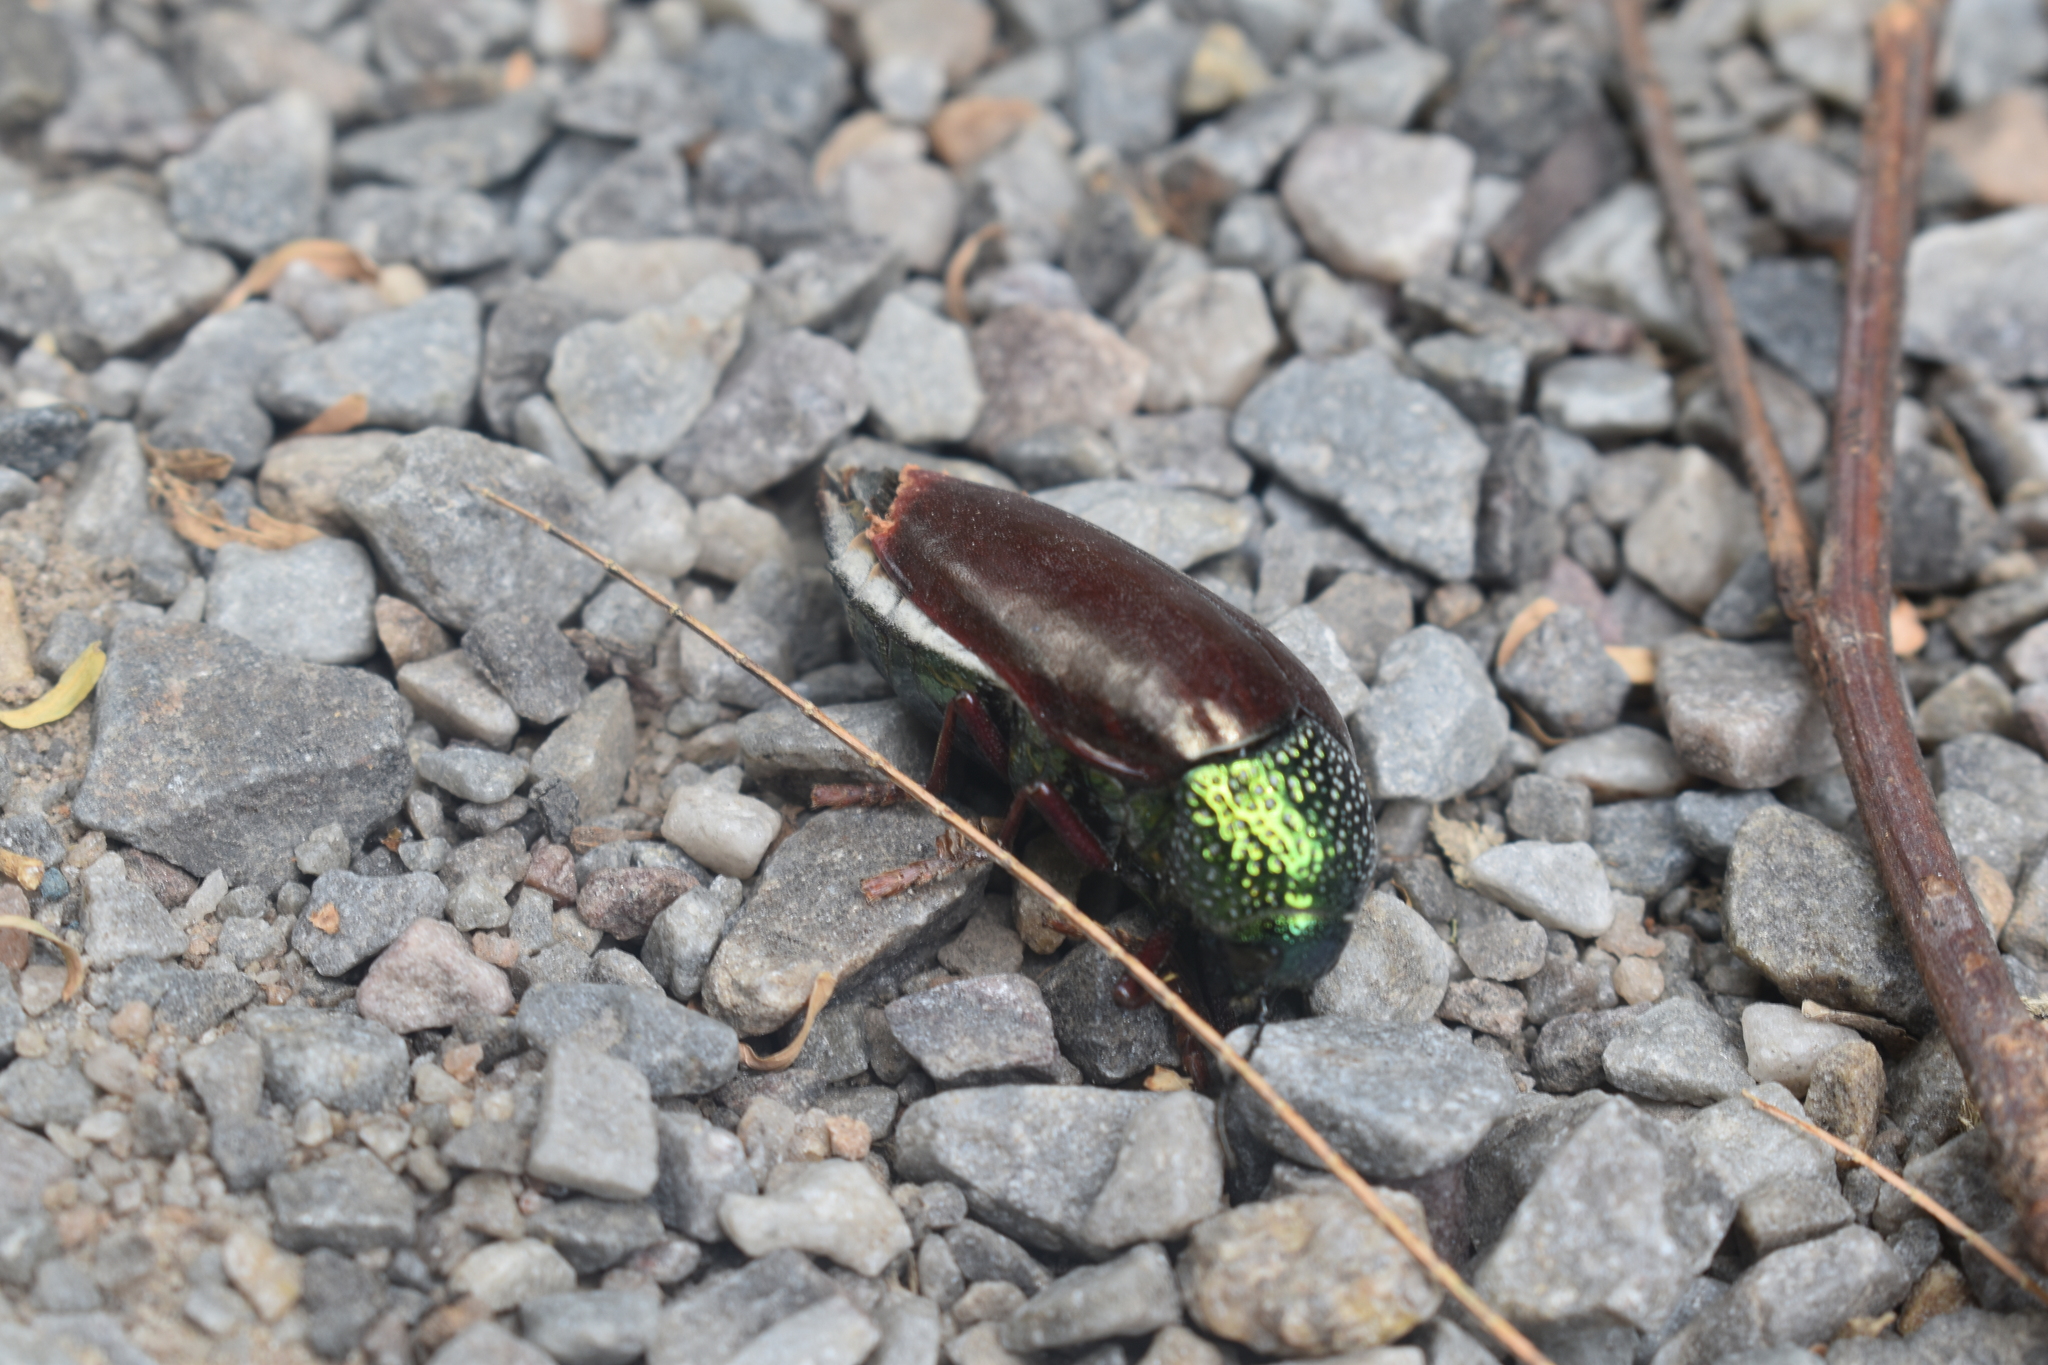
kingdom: Animalia
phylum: Arthropoda
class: Insecta
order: Coleoptera
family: Buprestidae
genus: Sternocera
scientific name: Sternocera chrysis
